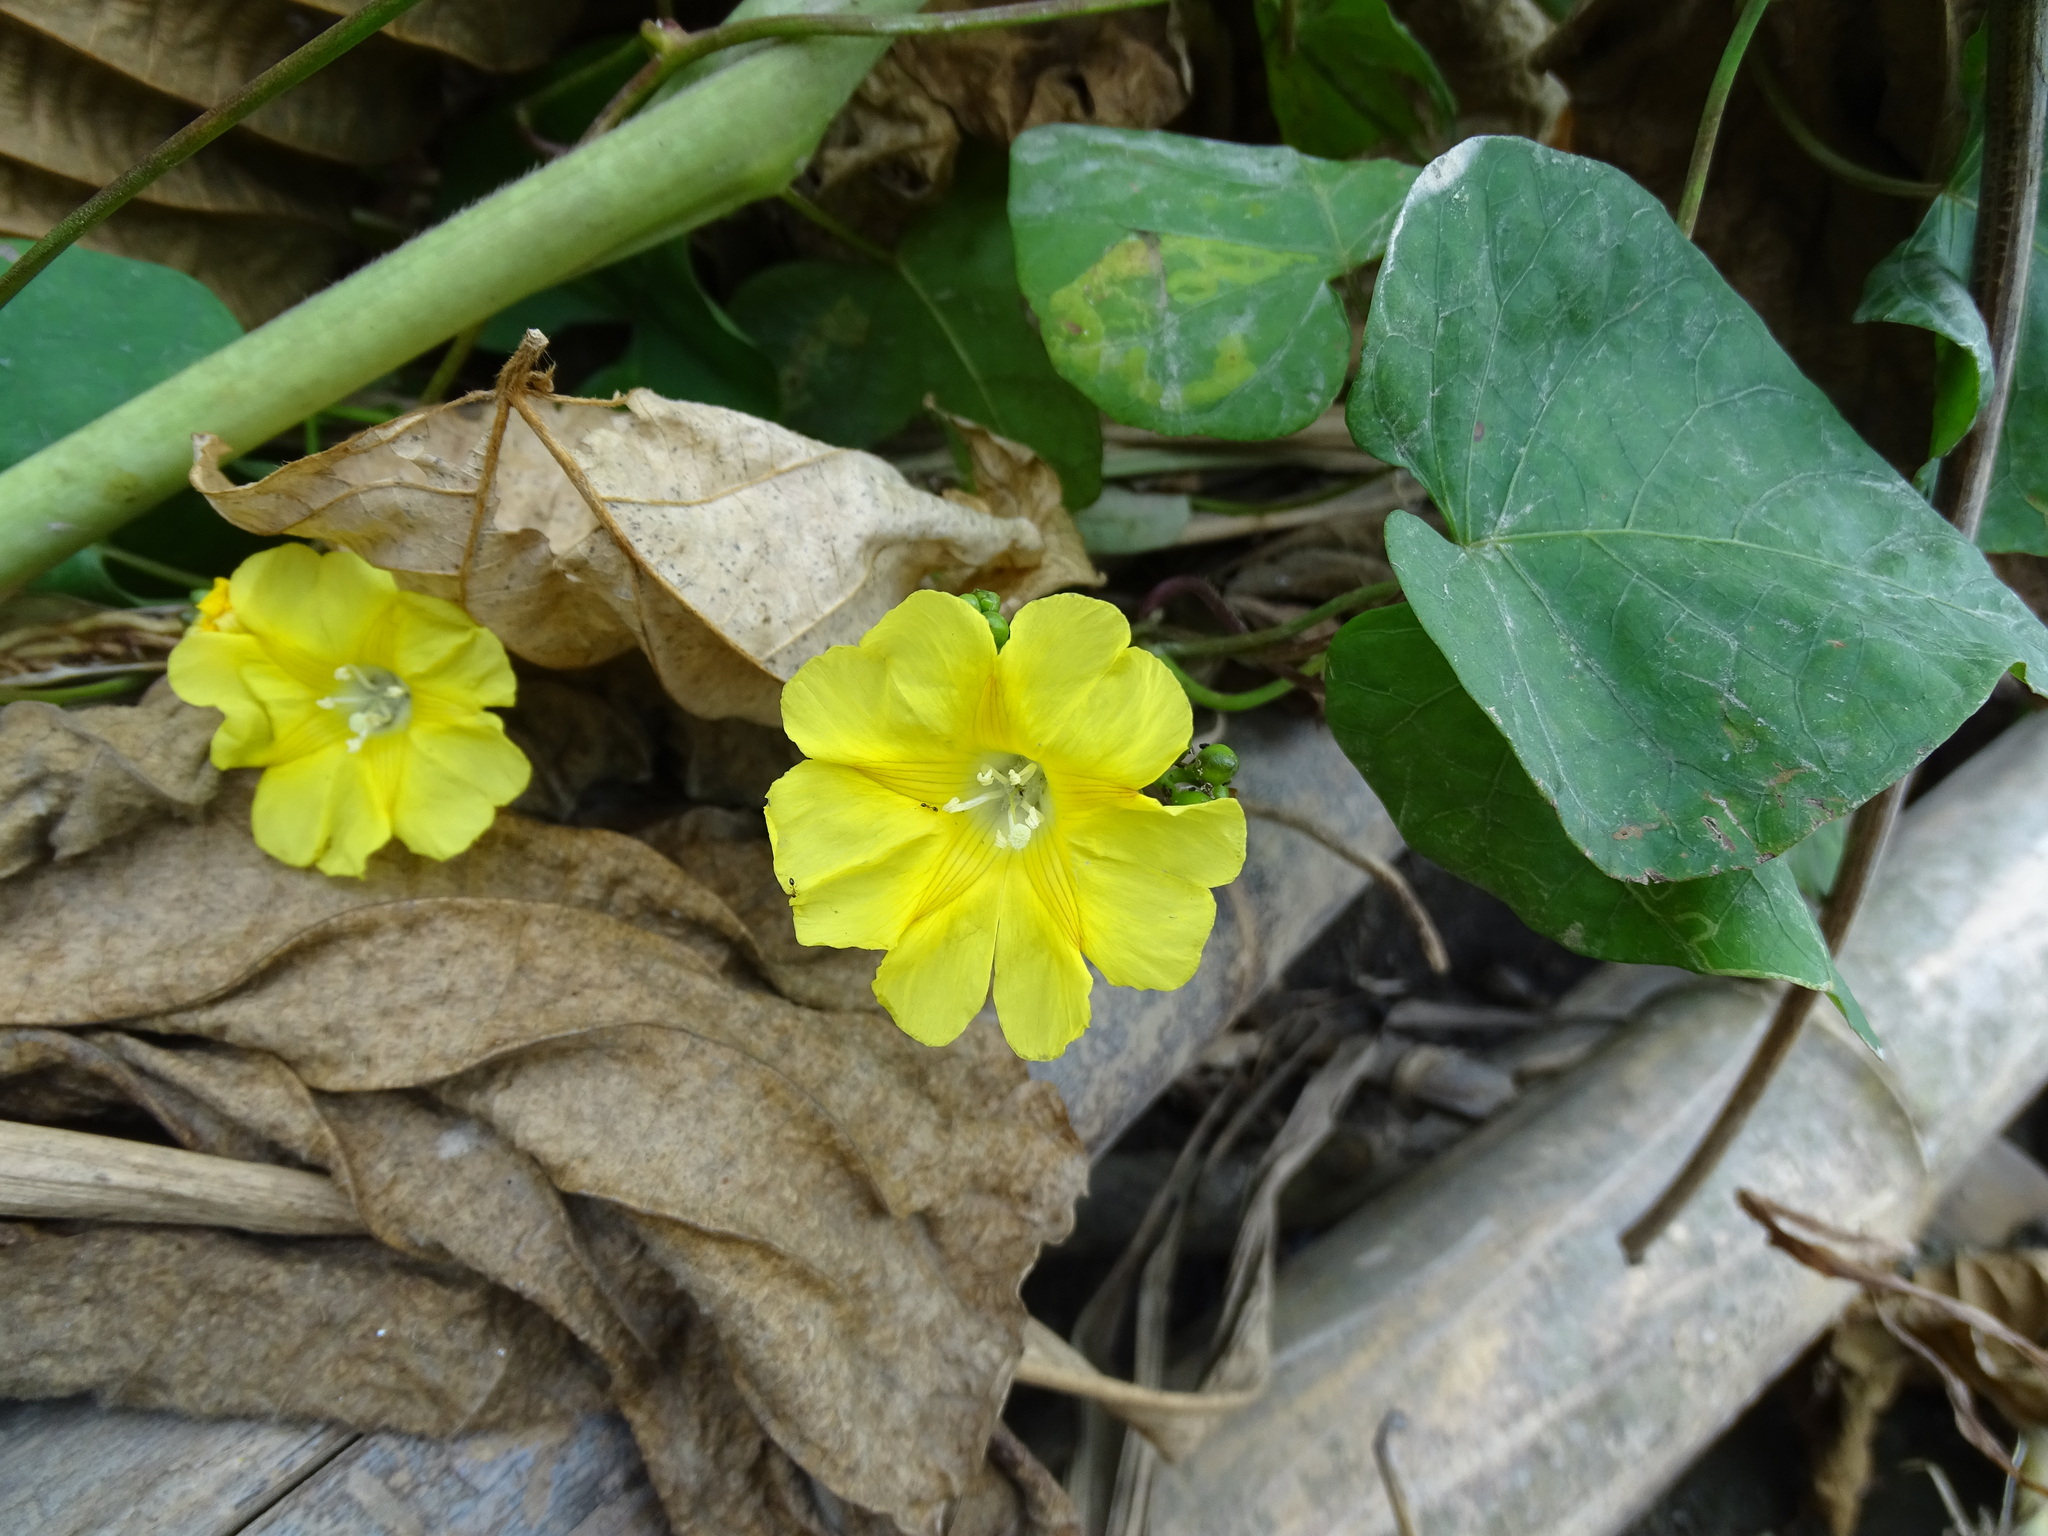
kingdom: Plantae
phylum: Tracheophyta
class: Magnoliopsida
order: Solanales
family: Convolvulaceae
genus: Merremia
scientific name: Merremia gemella
